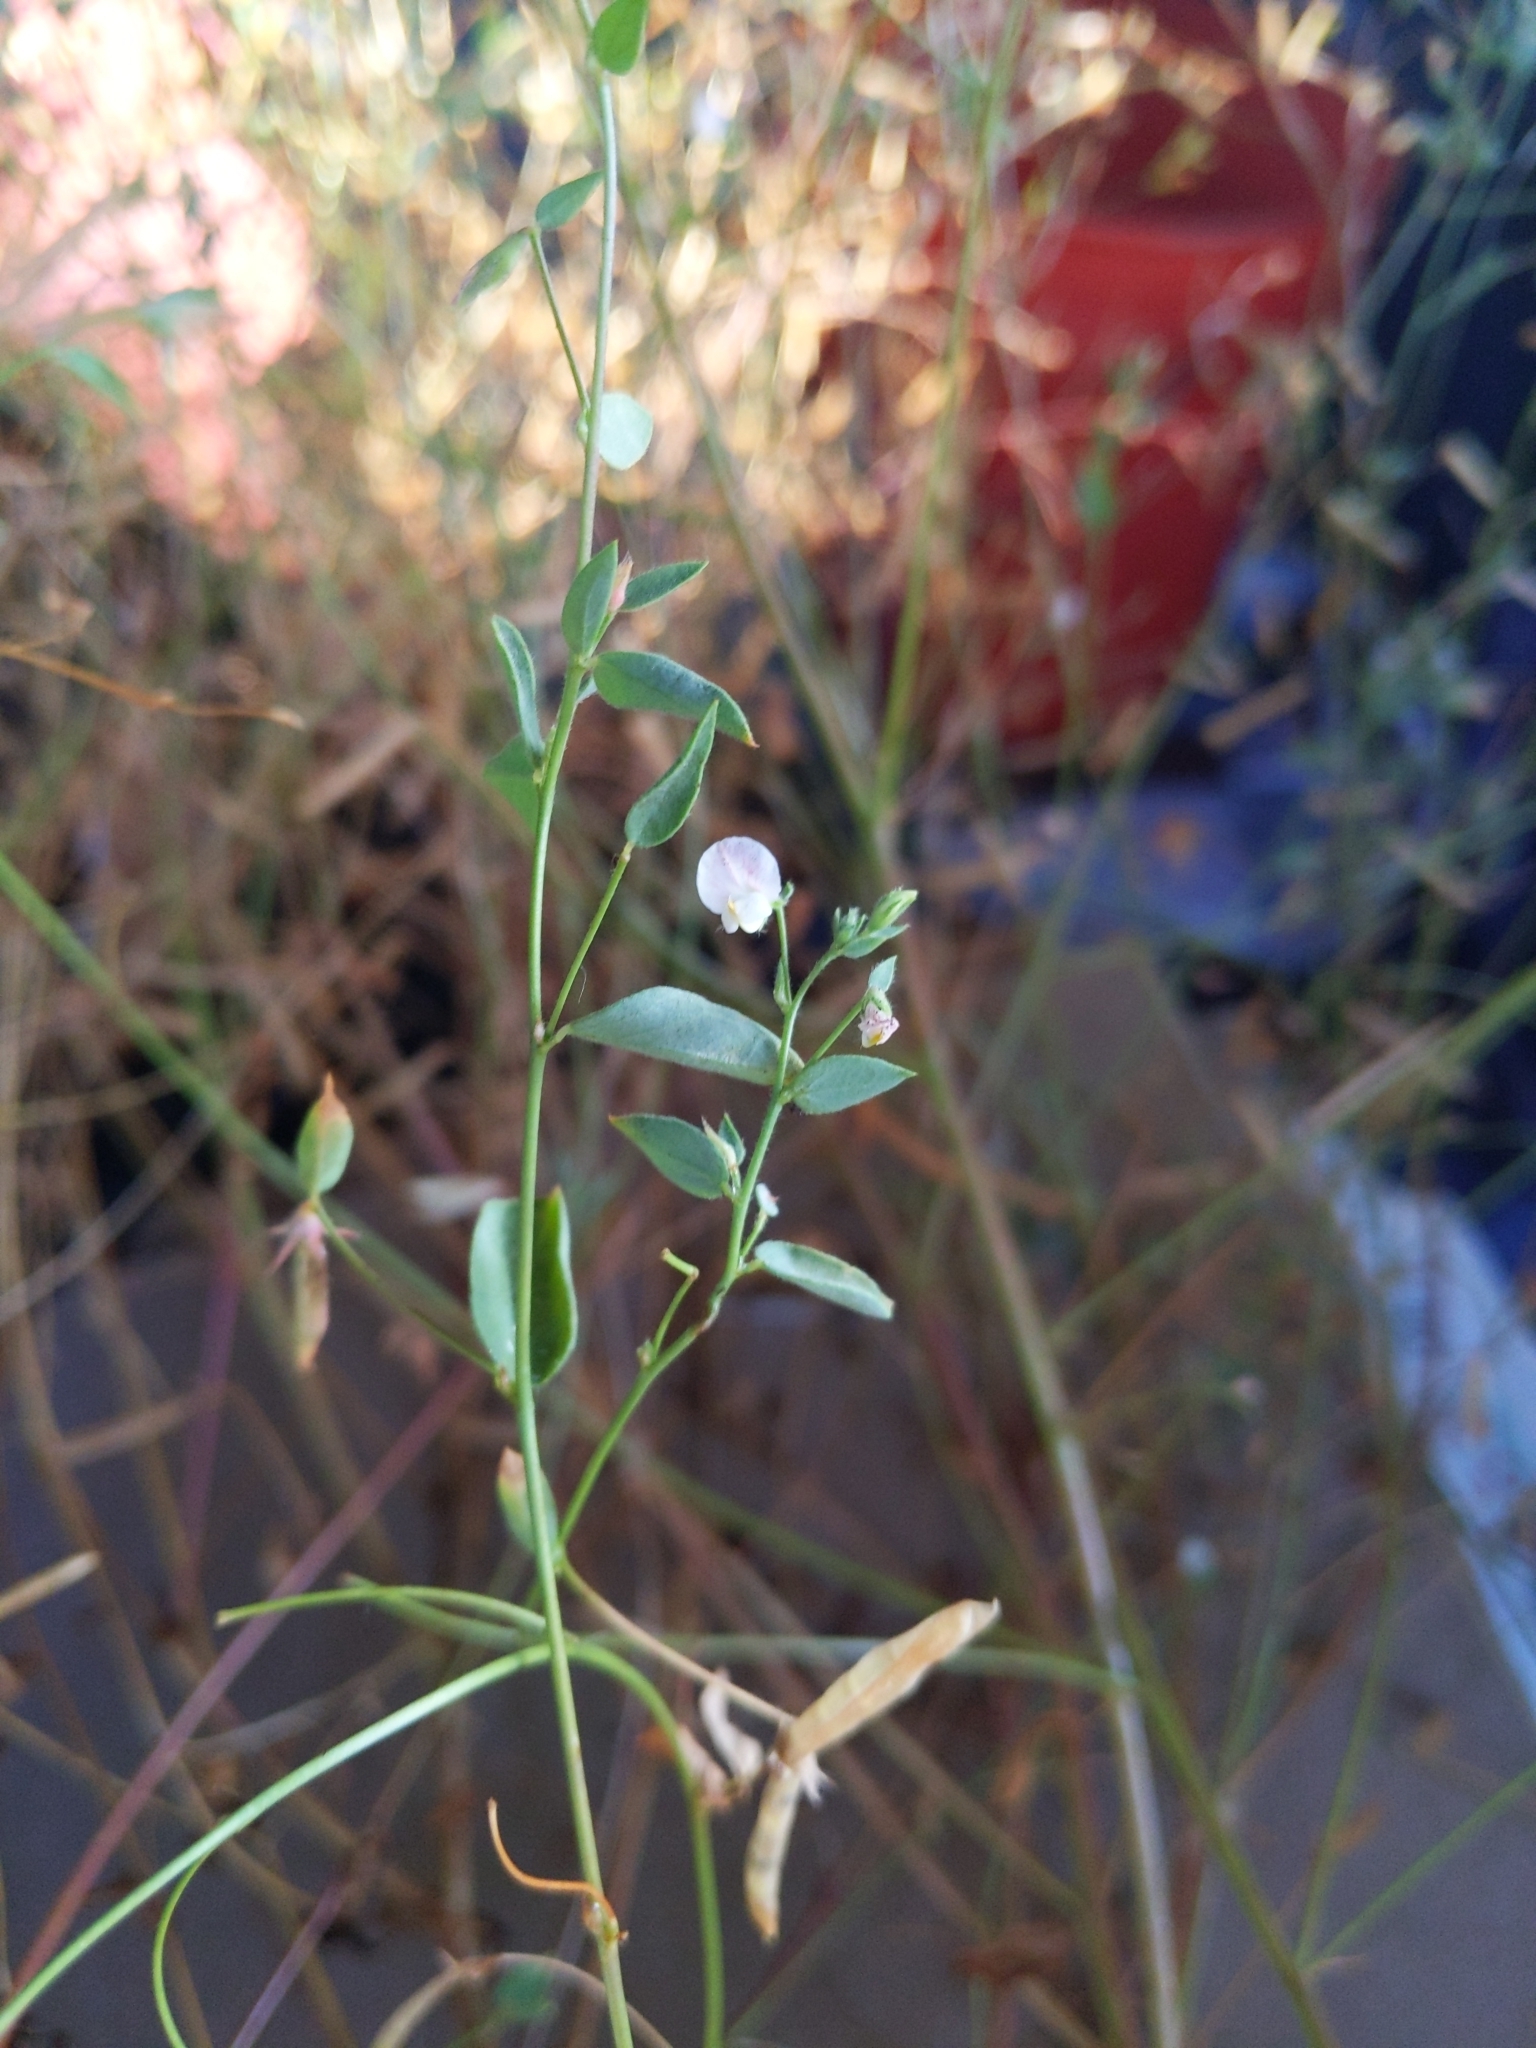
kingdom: Plantae
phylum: Tracheophyta
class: Magnoliopsida
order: Fabales
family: Fabaceae
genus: Acmispon
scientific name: Acmispon americanus
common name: American bird's-foot trefoil
